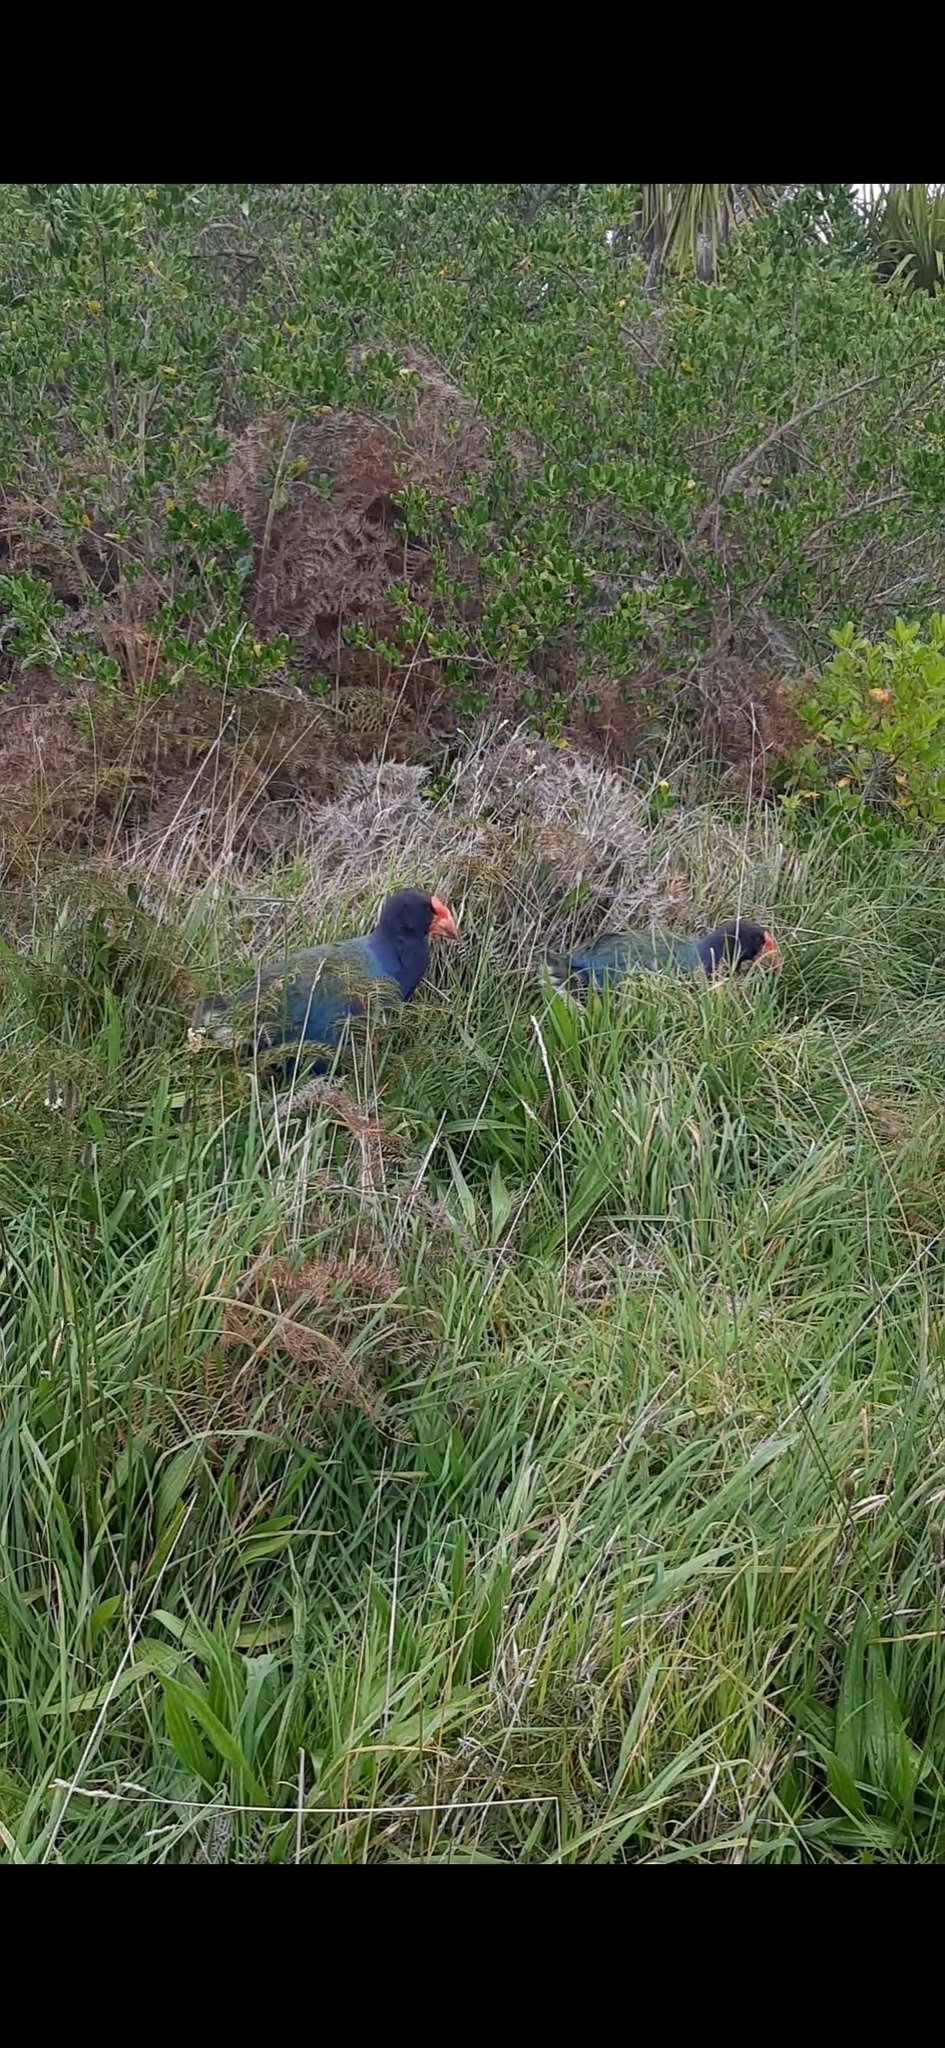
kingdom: Animalia
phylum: Chordata
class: Aves
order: Gruiformes
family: Rallidae
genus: Porphyrio
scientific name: Porphyrio hochstetteri
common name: South island takahe
